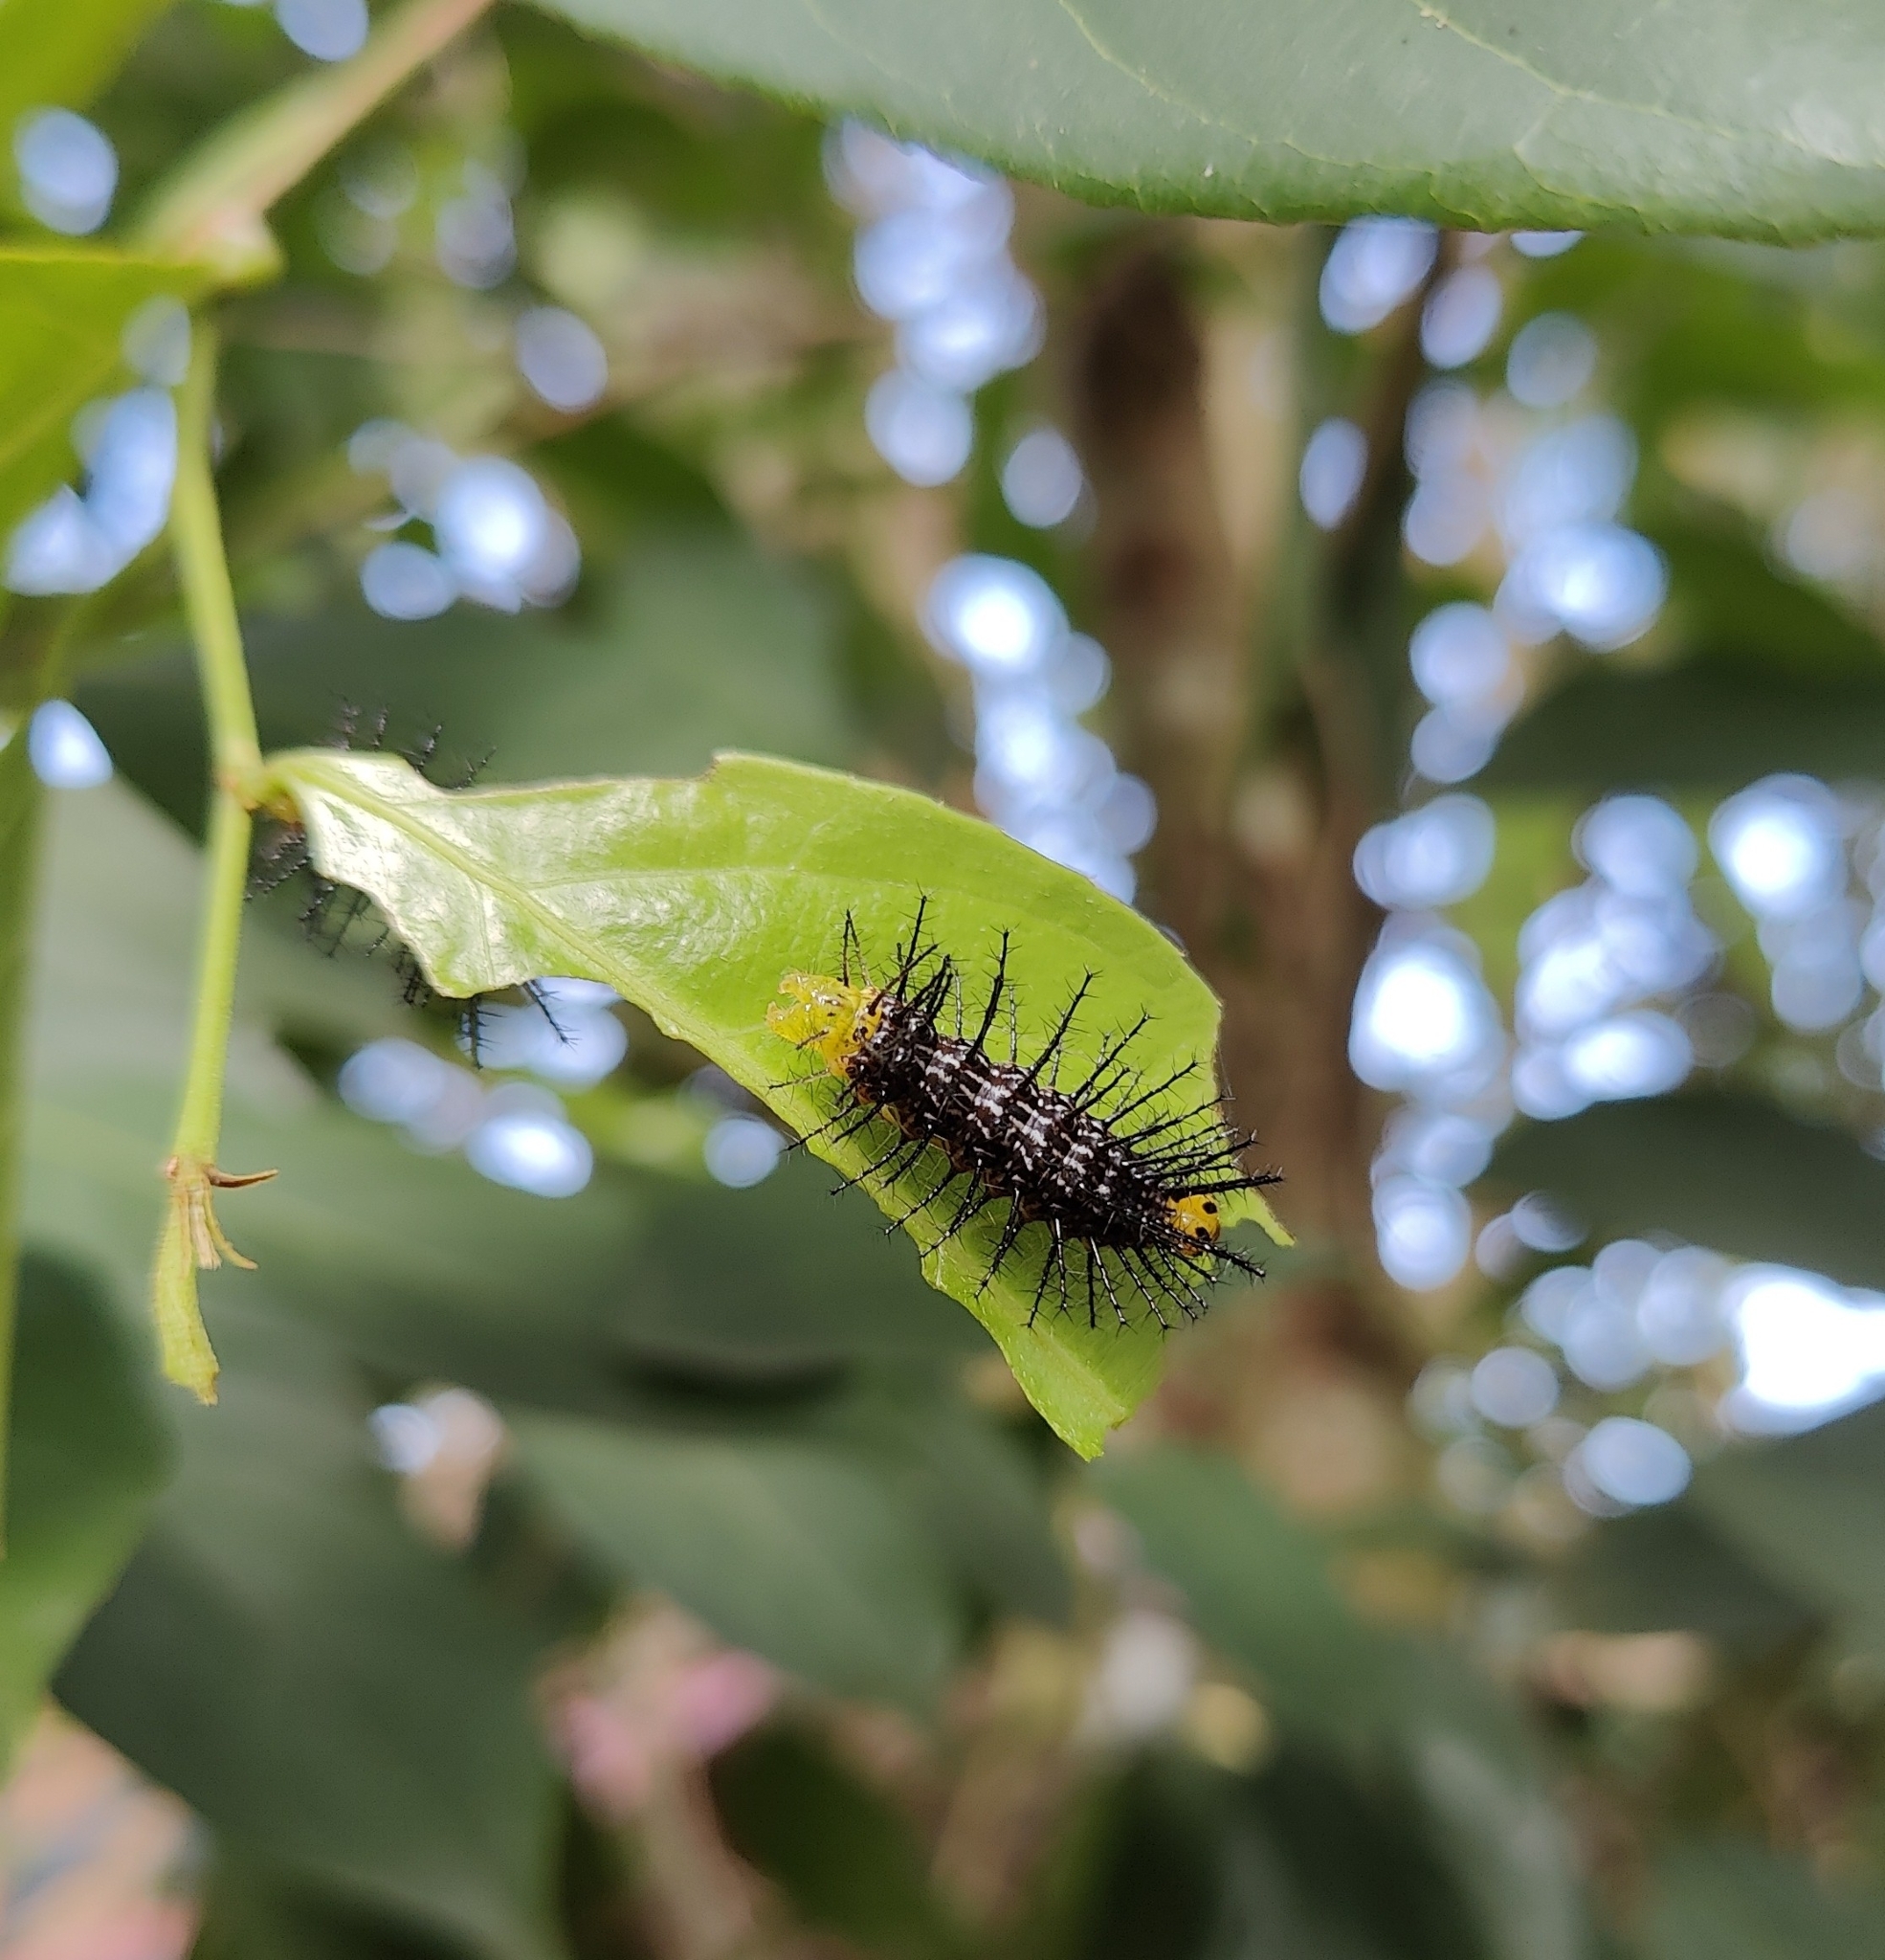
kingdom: Animalia
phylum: Arthropoda
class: Insecta
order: Lepidoptera
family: Nymphalidae
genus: Cirrochroa
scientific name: Cirrochroa thais
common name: Tamil yeoman
